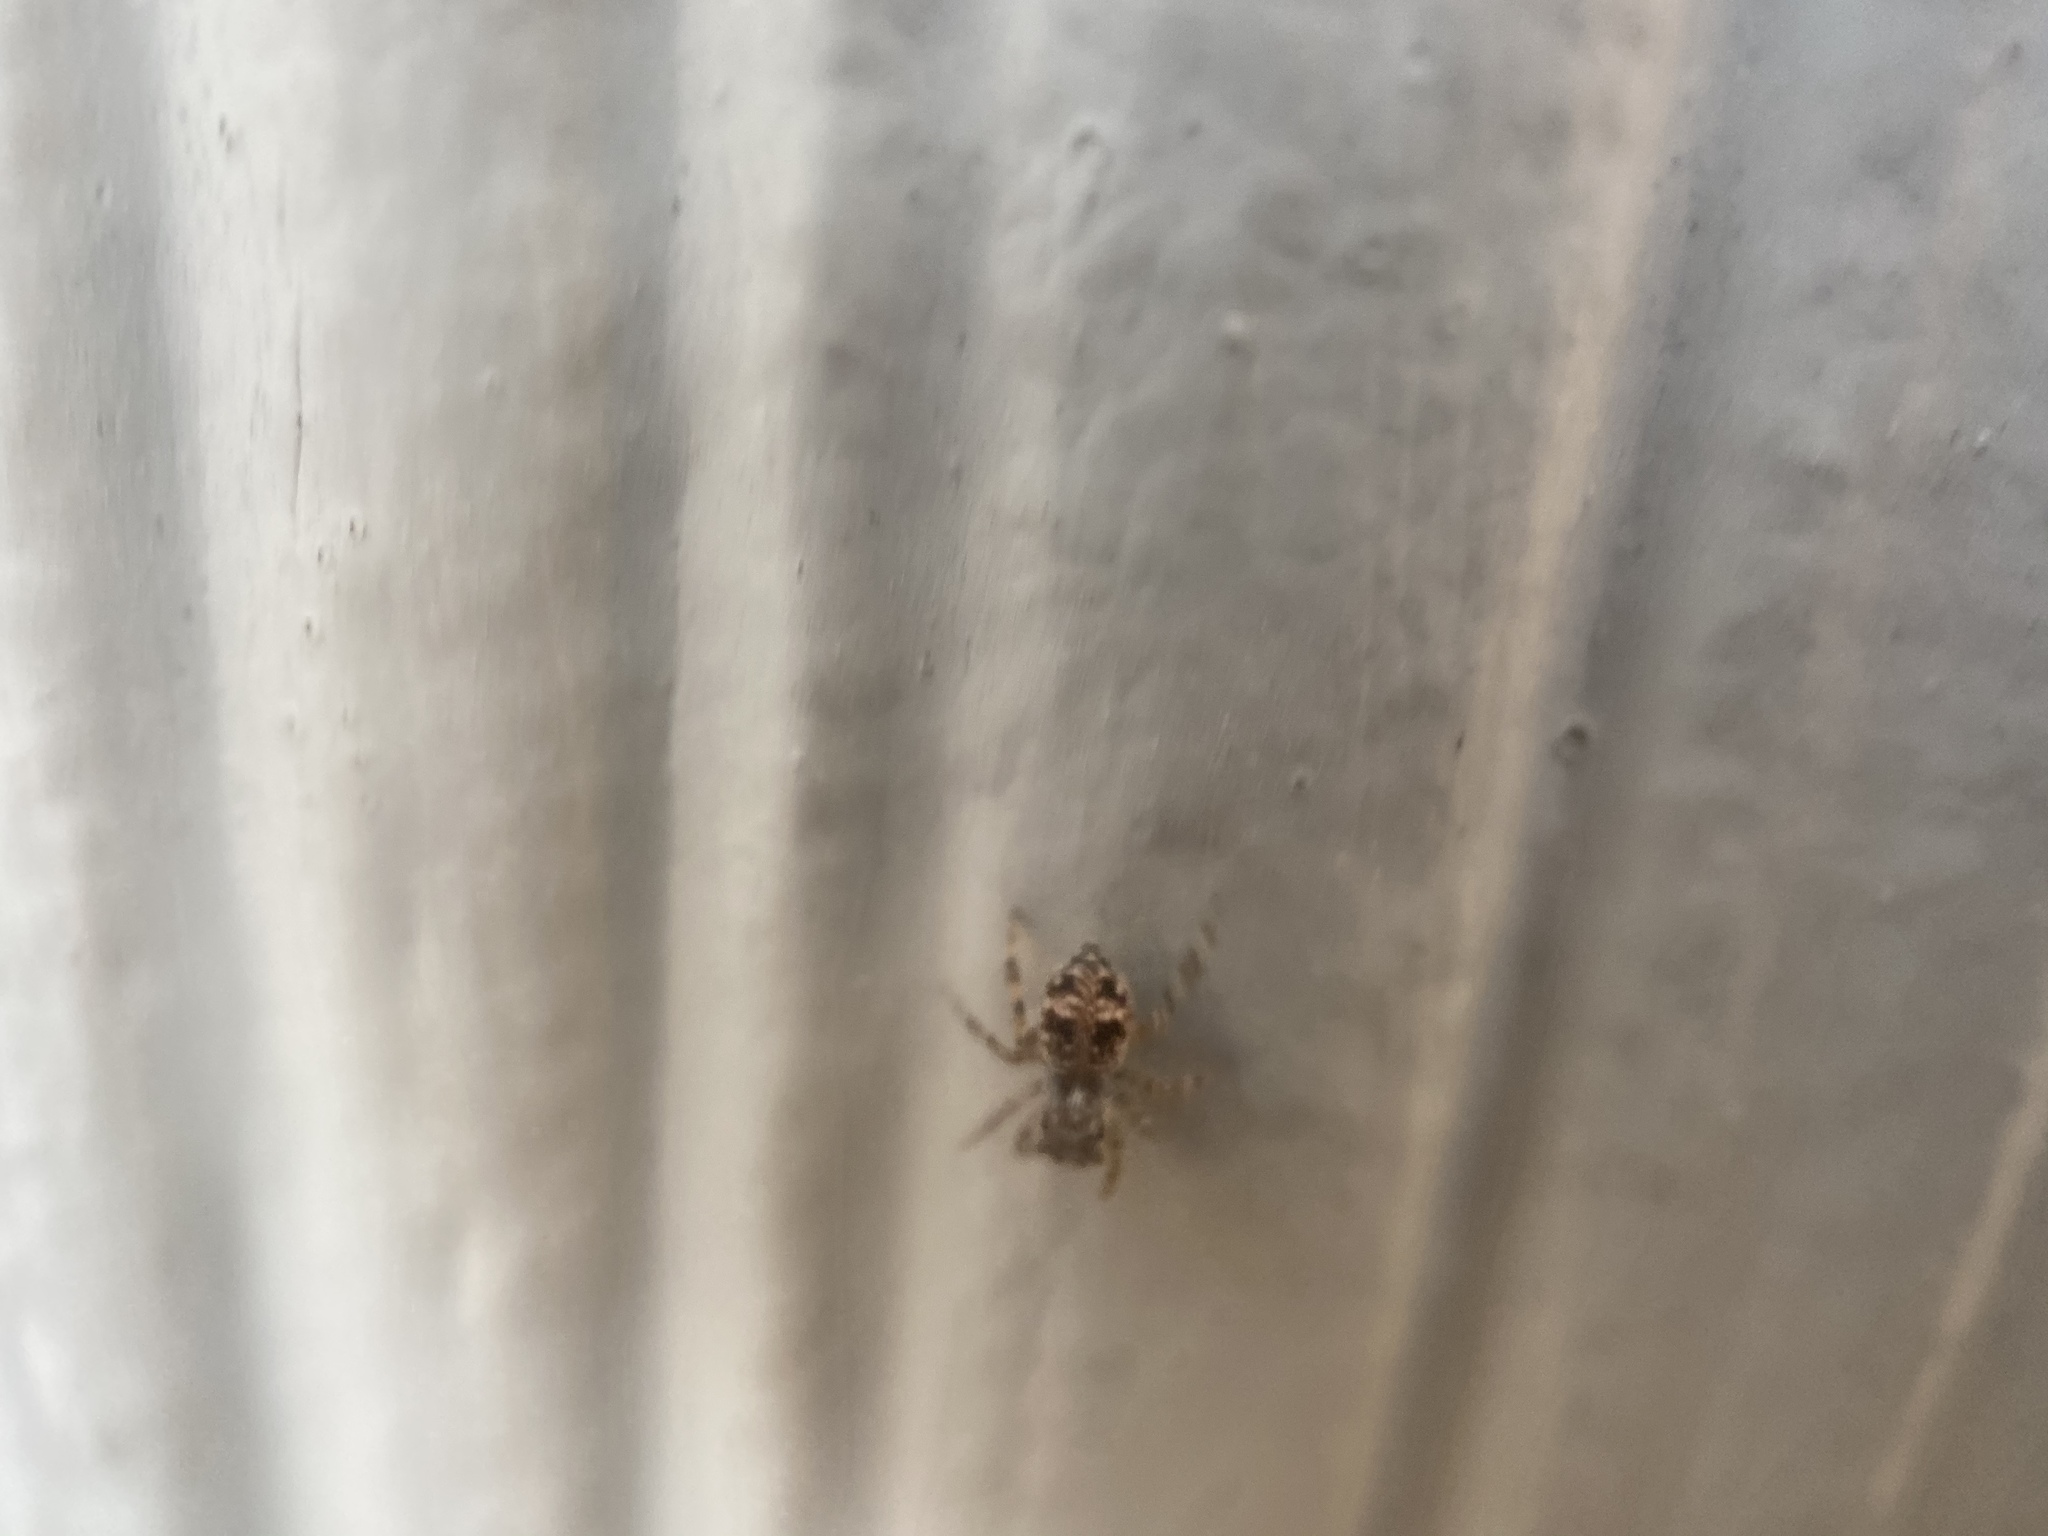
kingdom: Animalia
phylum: Arthropoda
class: Arachnida
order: Araneae
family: Salticidae
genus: Attulus
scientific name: Attulus fasciger
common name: Asiatic wall jumping spider
